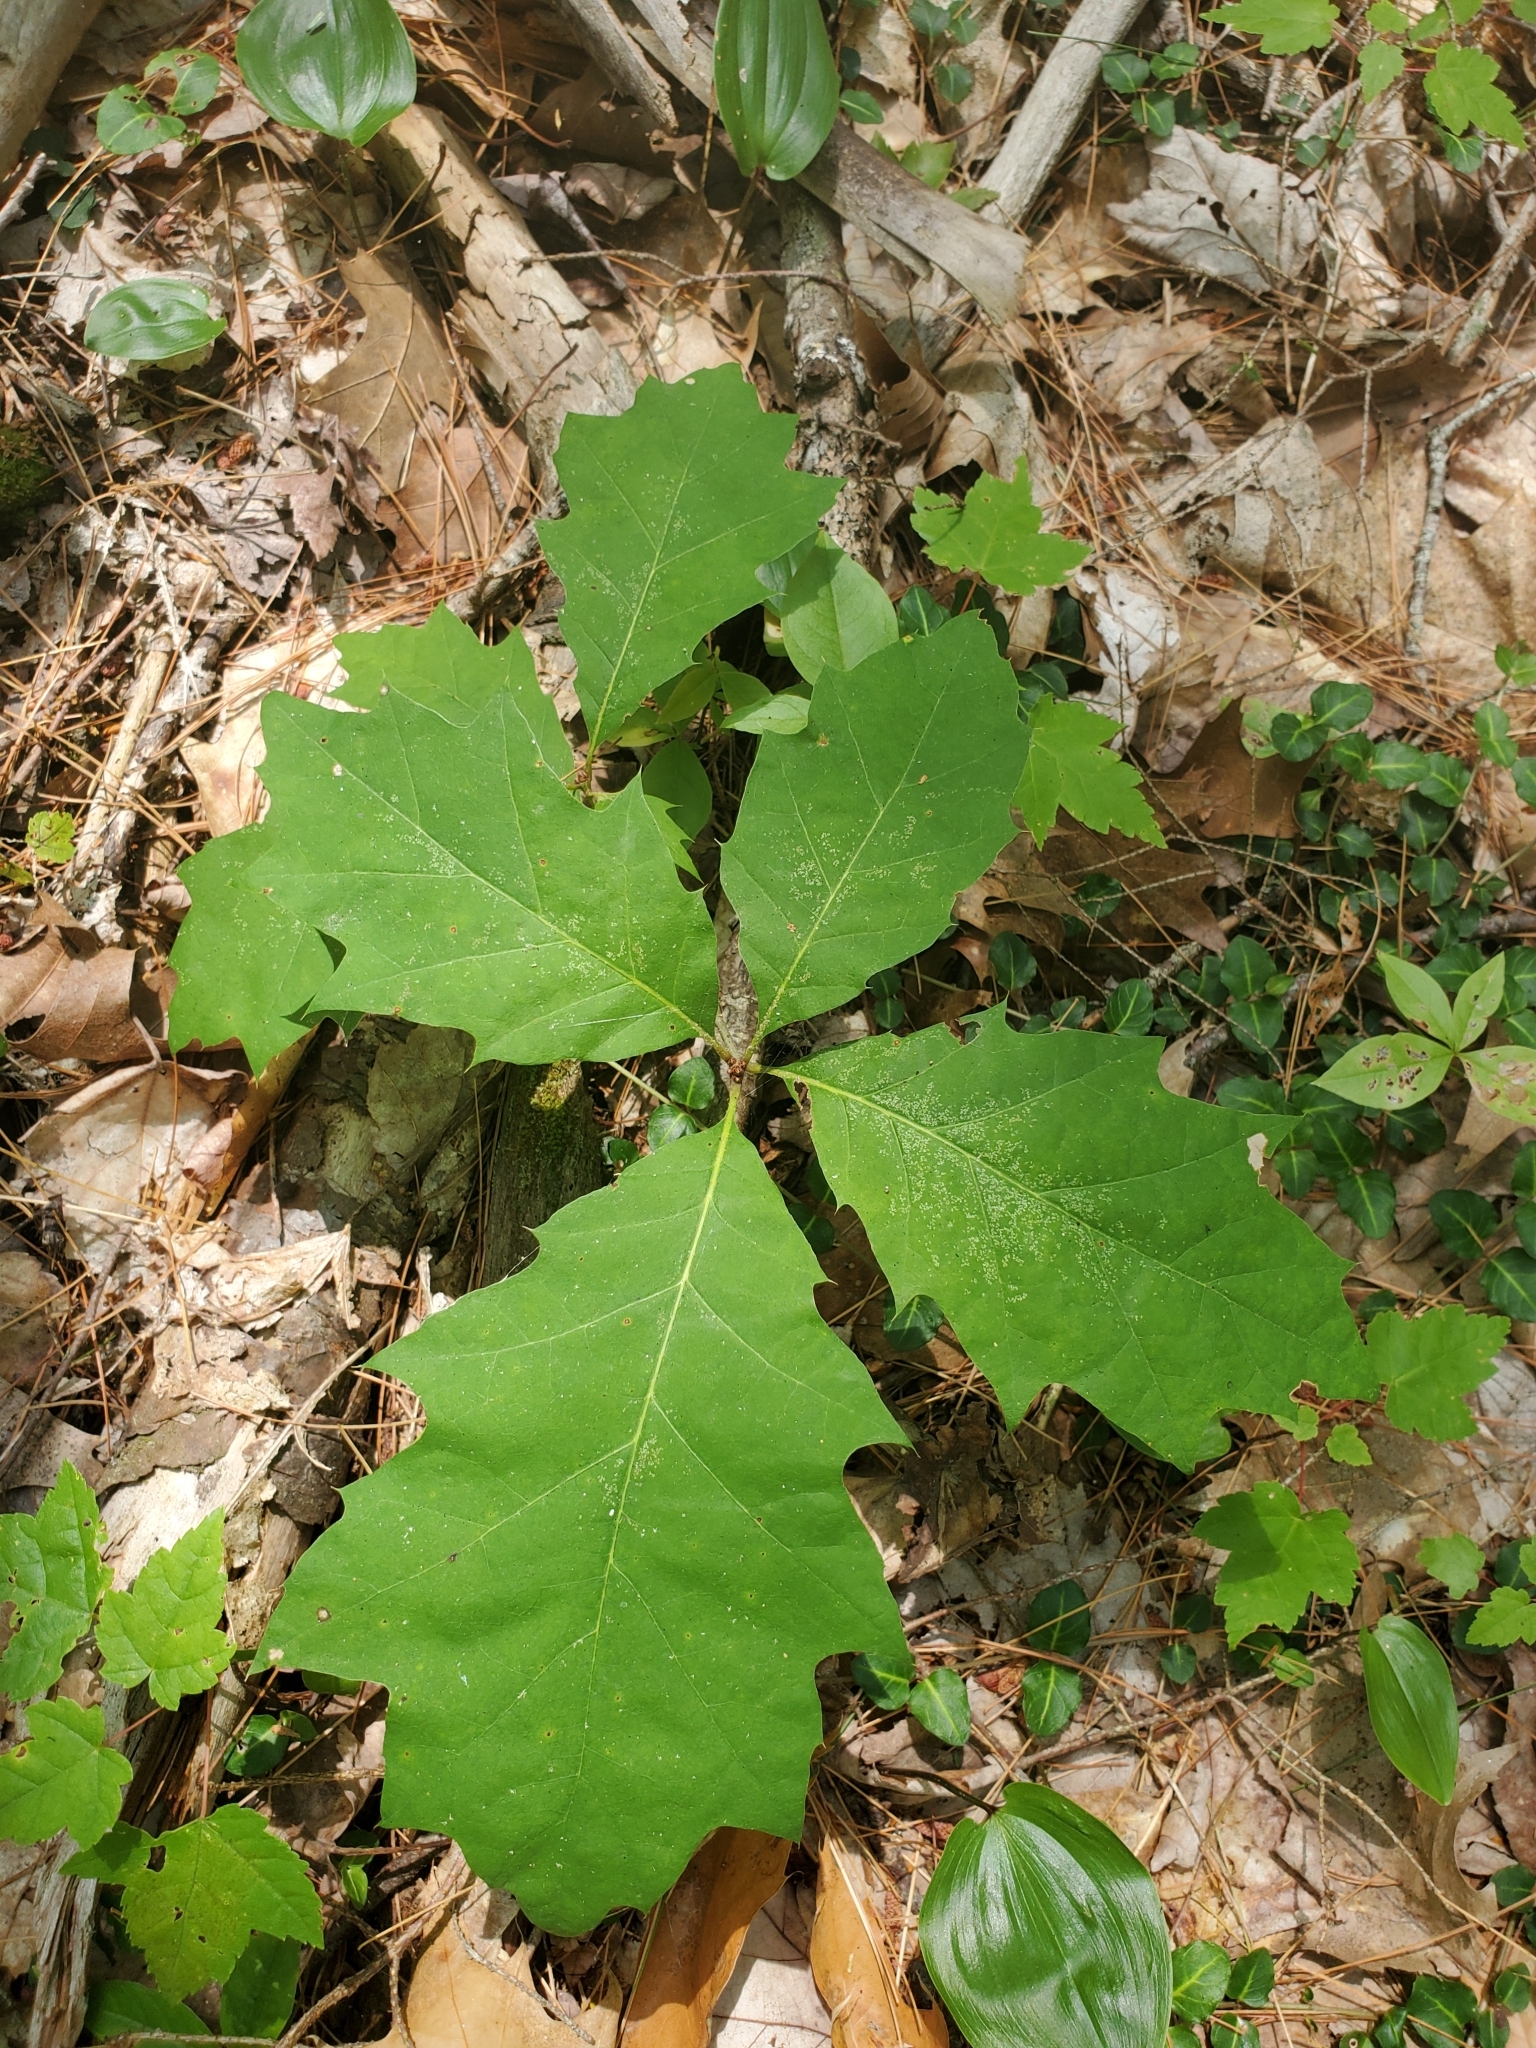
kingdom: Plantae
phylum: Tracheophyta
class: Magnoliopsida
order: Fagales
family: Fagaceae
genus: Quercus
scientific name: Quercus rubra
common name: Red oak
